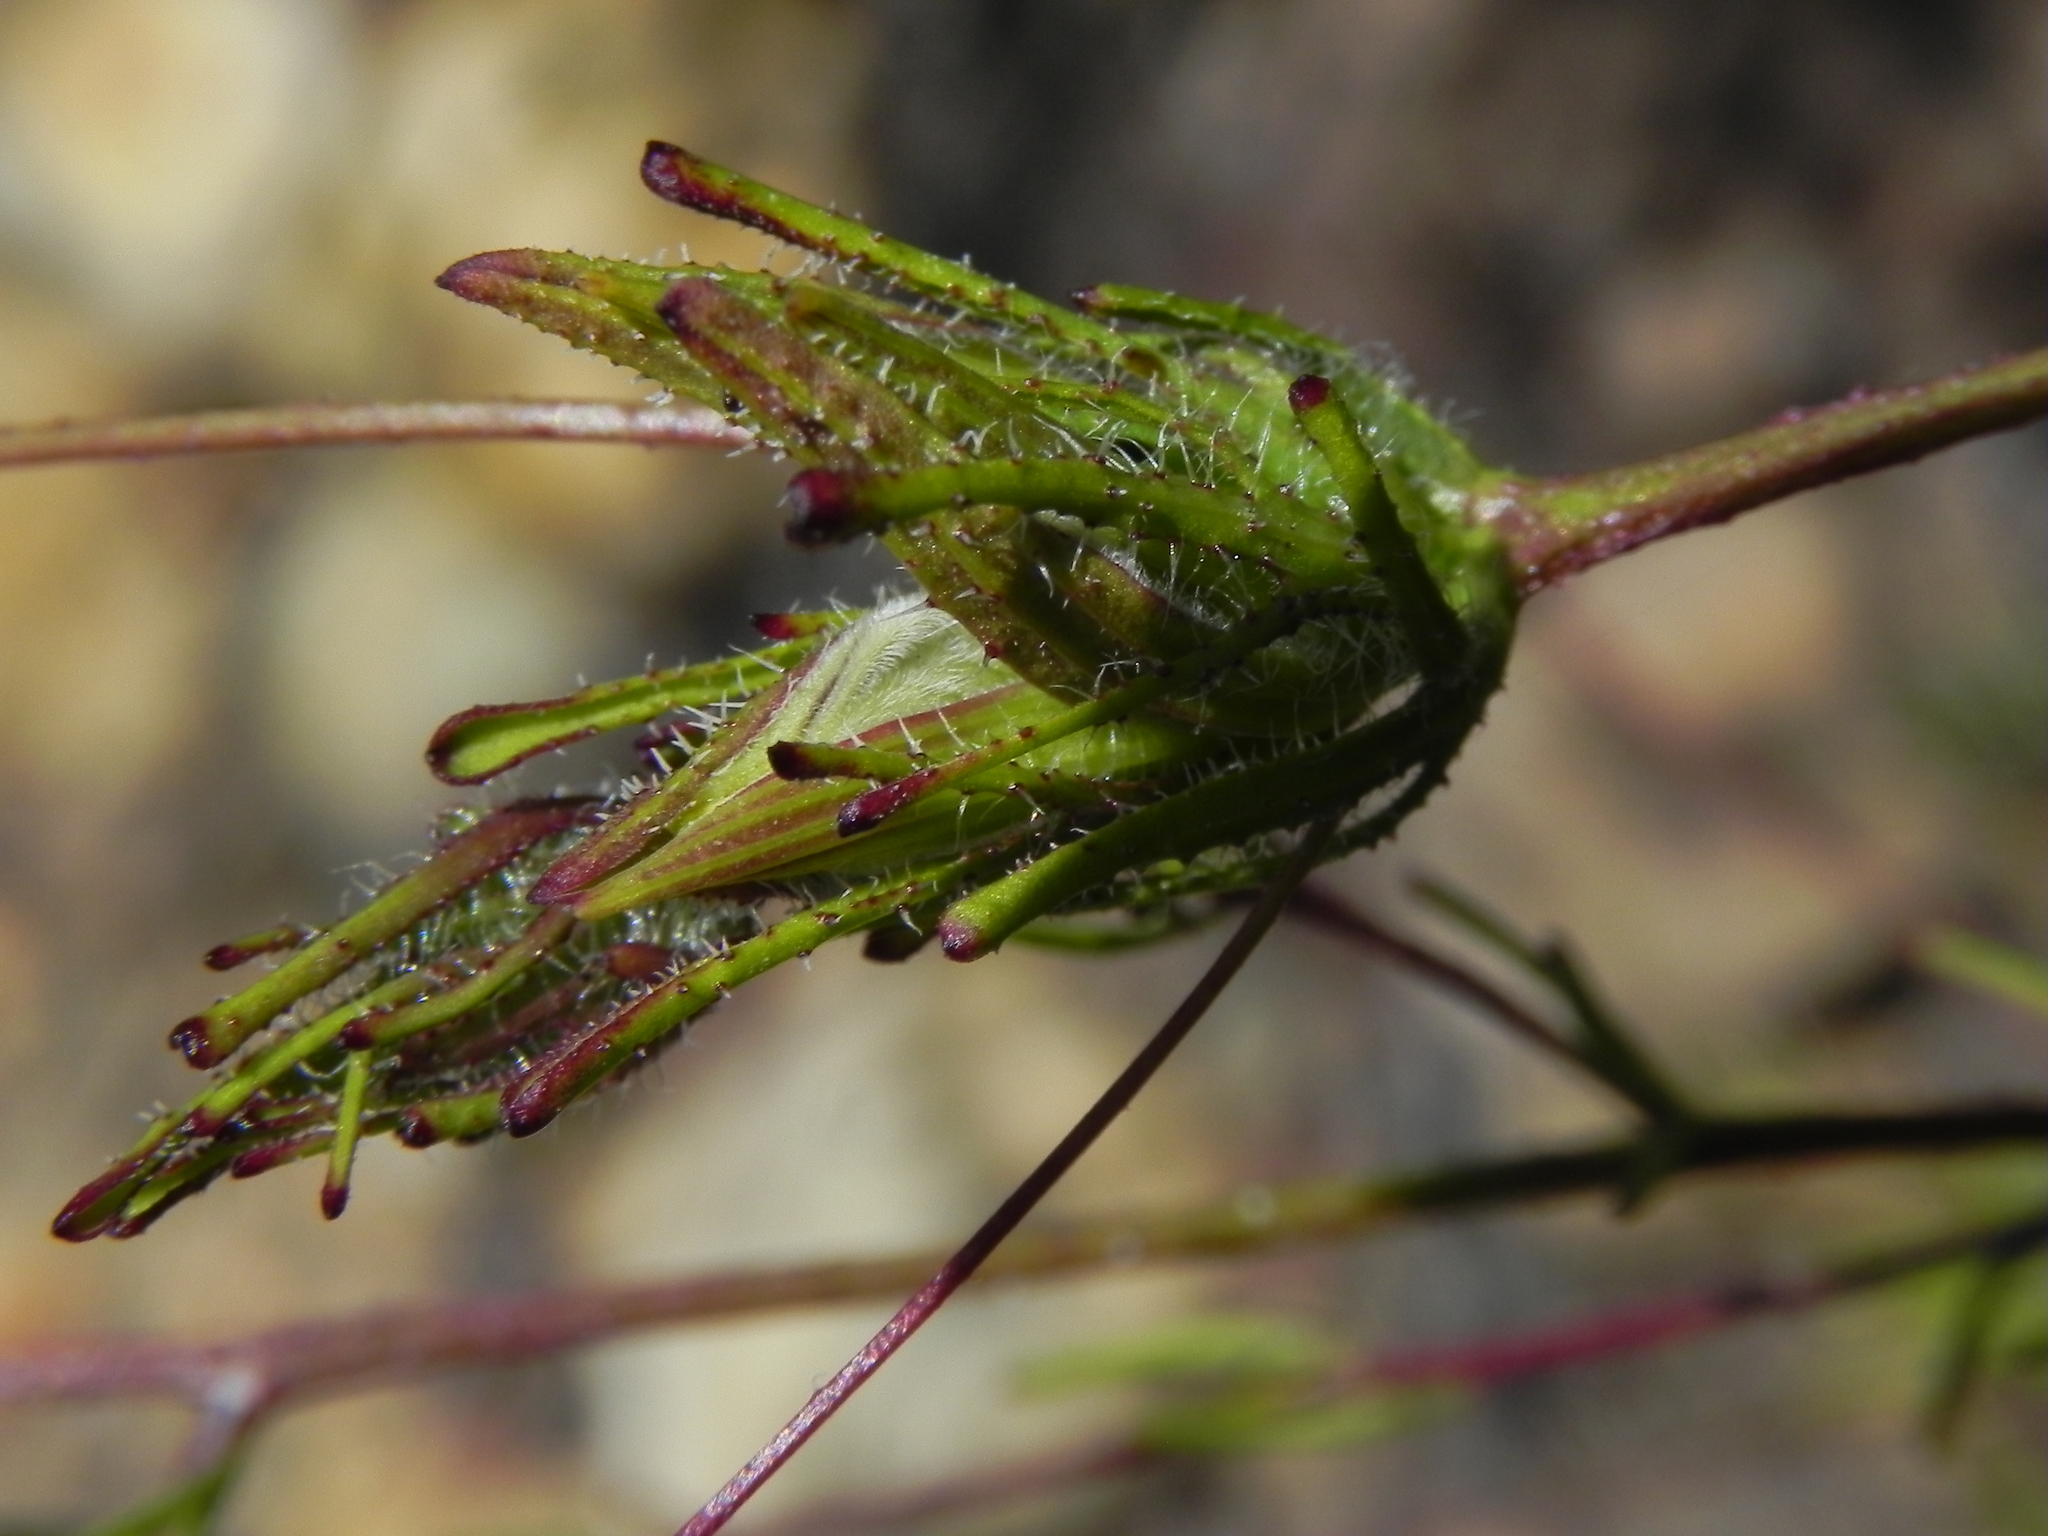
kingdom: Plantae
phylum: Tracheophyta
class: Magnoliopsida
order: Lamiales
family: Orobanchaceae
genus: Cordylanthus
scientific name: Cordylanthus rigidus
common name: Stiff-branch bird's-beak
